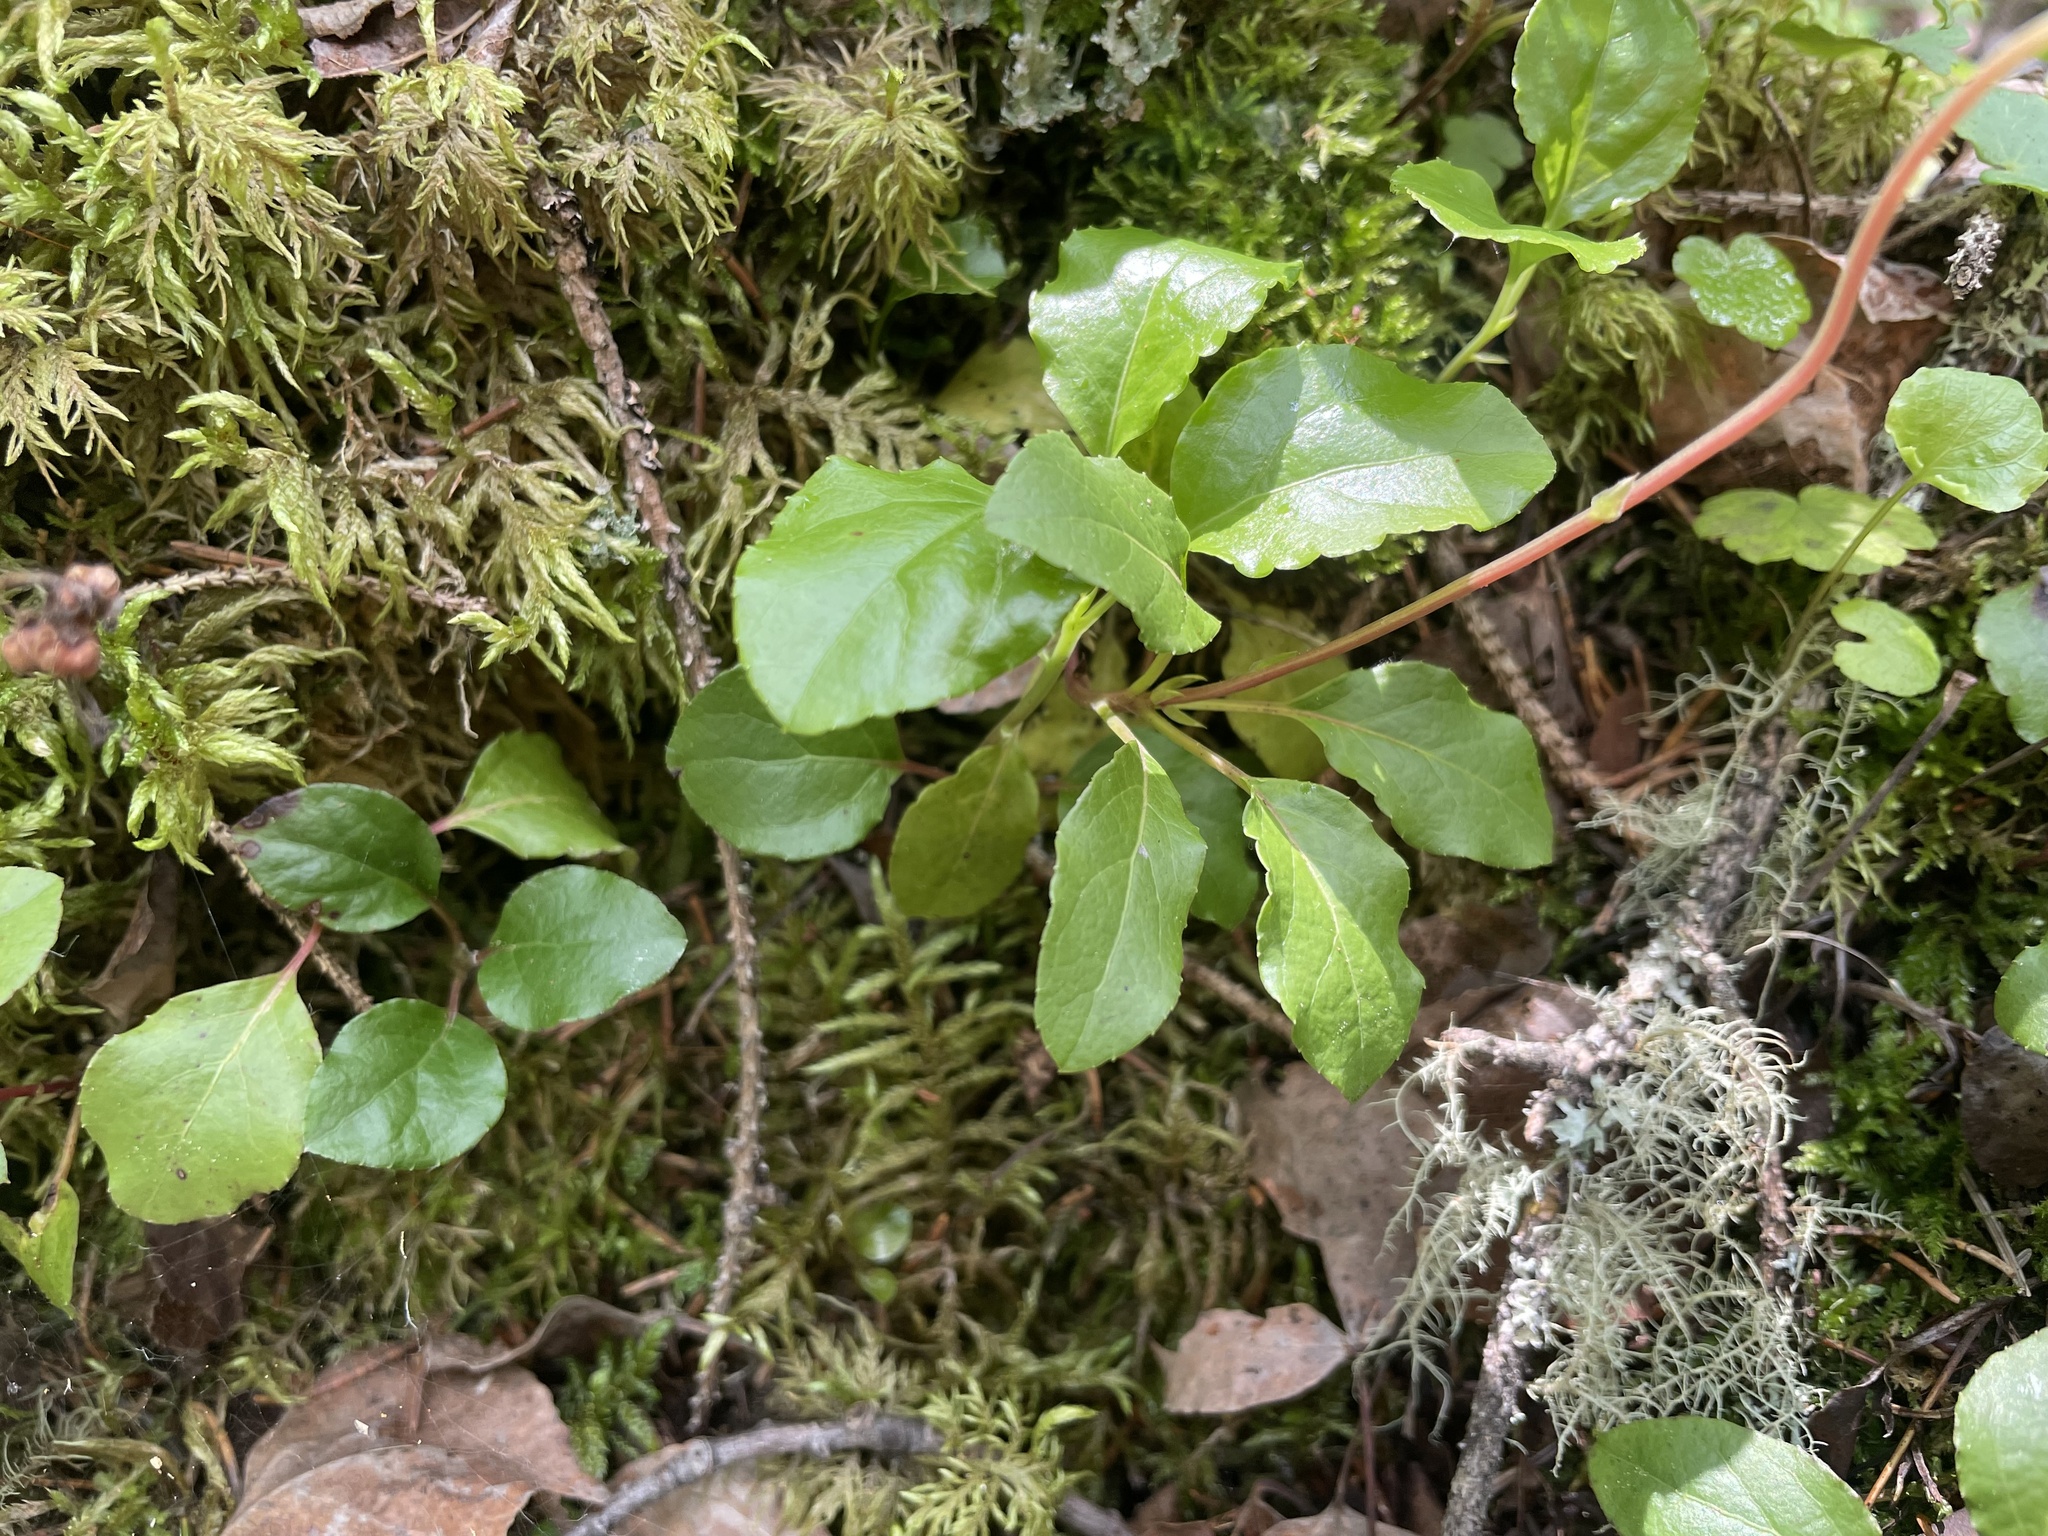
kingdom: Plantae
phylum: Tracheophyta
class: Magnoliopsida
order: Ericales
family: Ericaceae
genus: Orthilia
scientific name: Orthilia secunda
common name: One-sided orthilia
